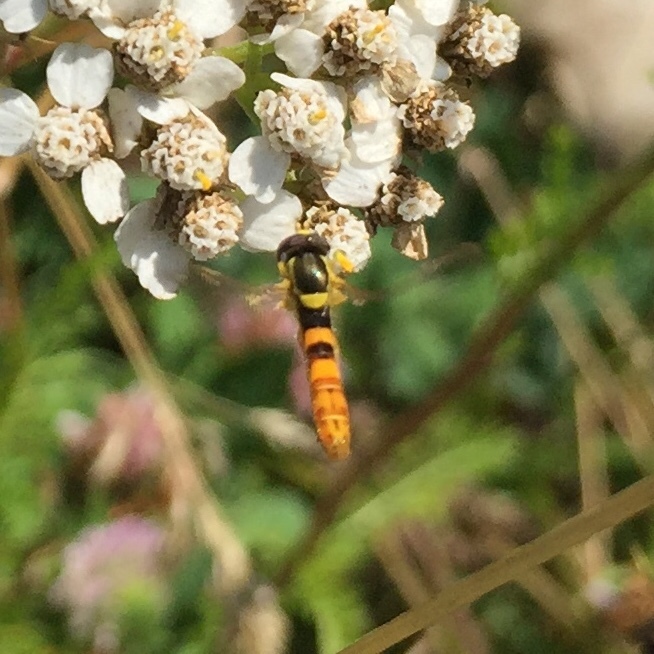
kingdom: Animalia
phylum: Arthropoda
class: Insecta
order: Diptera
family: Syrphidae
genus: Sphaerophoria
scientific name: Sphaerophoria scripta
